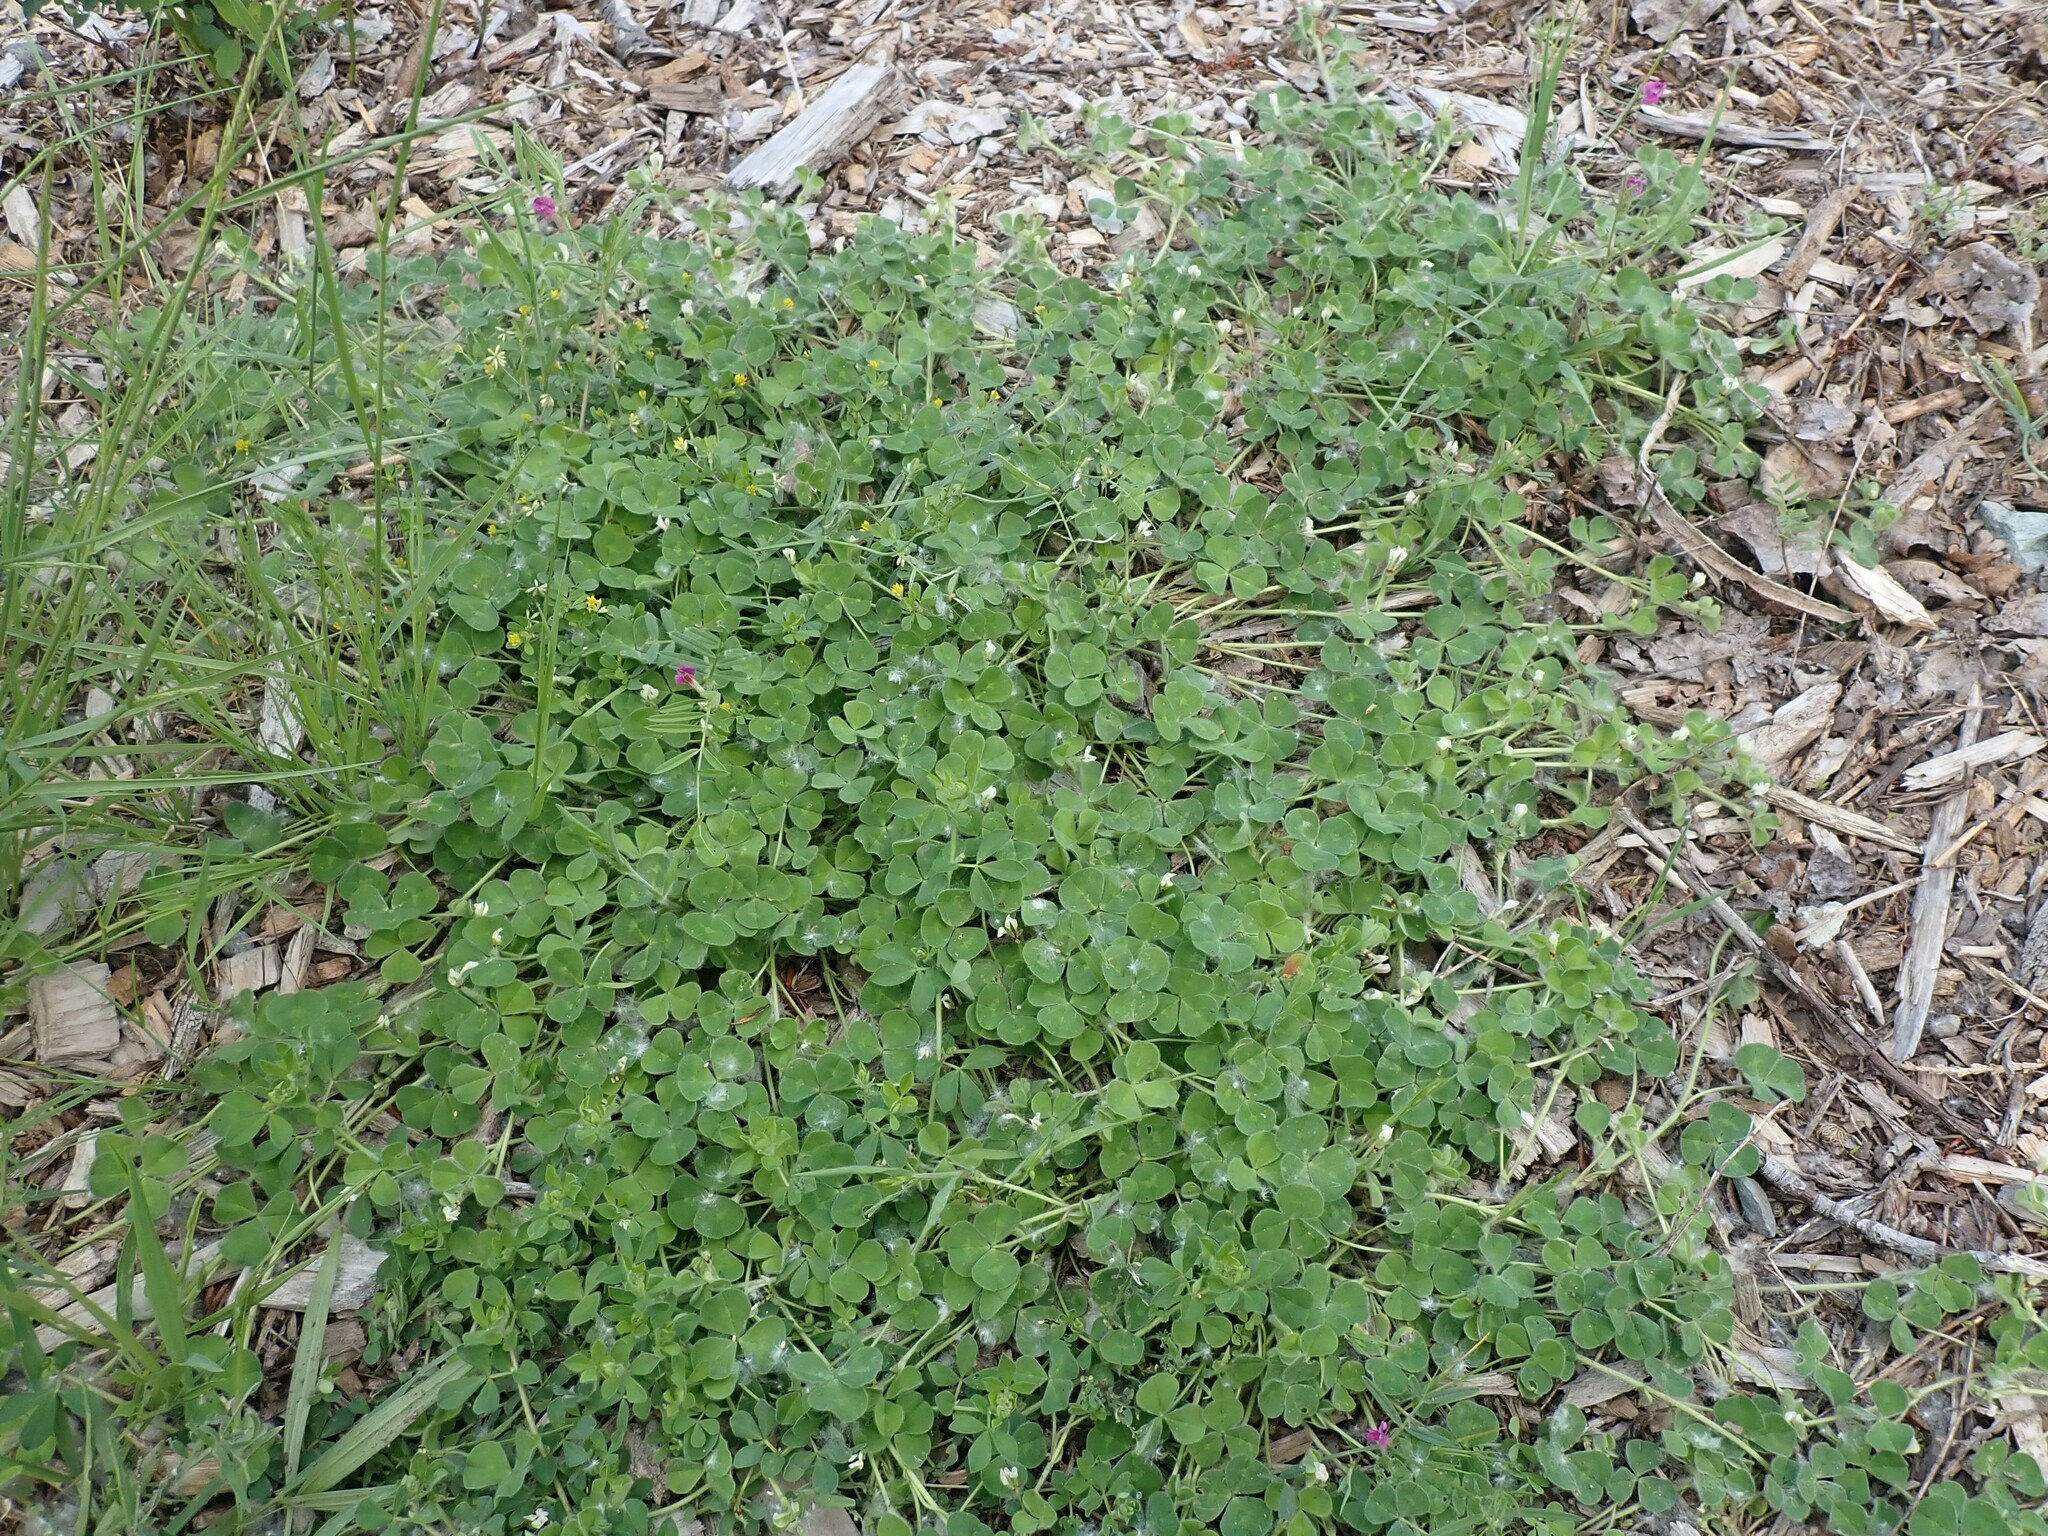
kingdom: Plantae
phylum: Tracheophyta
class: Magnoliopsida
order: Fabales
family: Fabaceae
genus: Trifolium
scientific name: Trifolium subterraneum
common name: Subterranean clover
